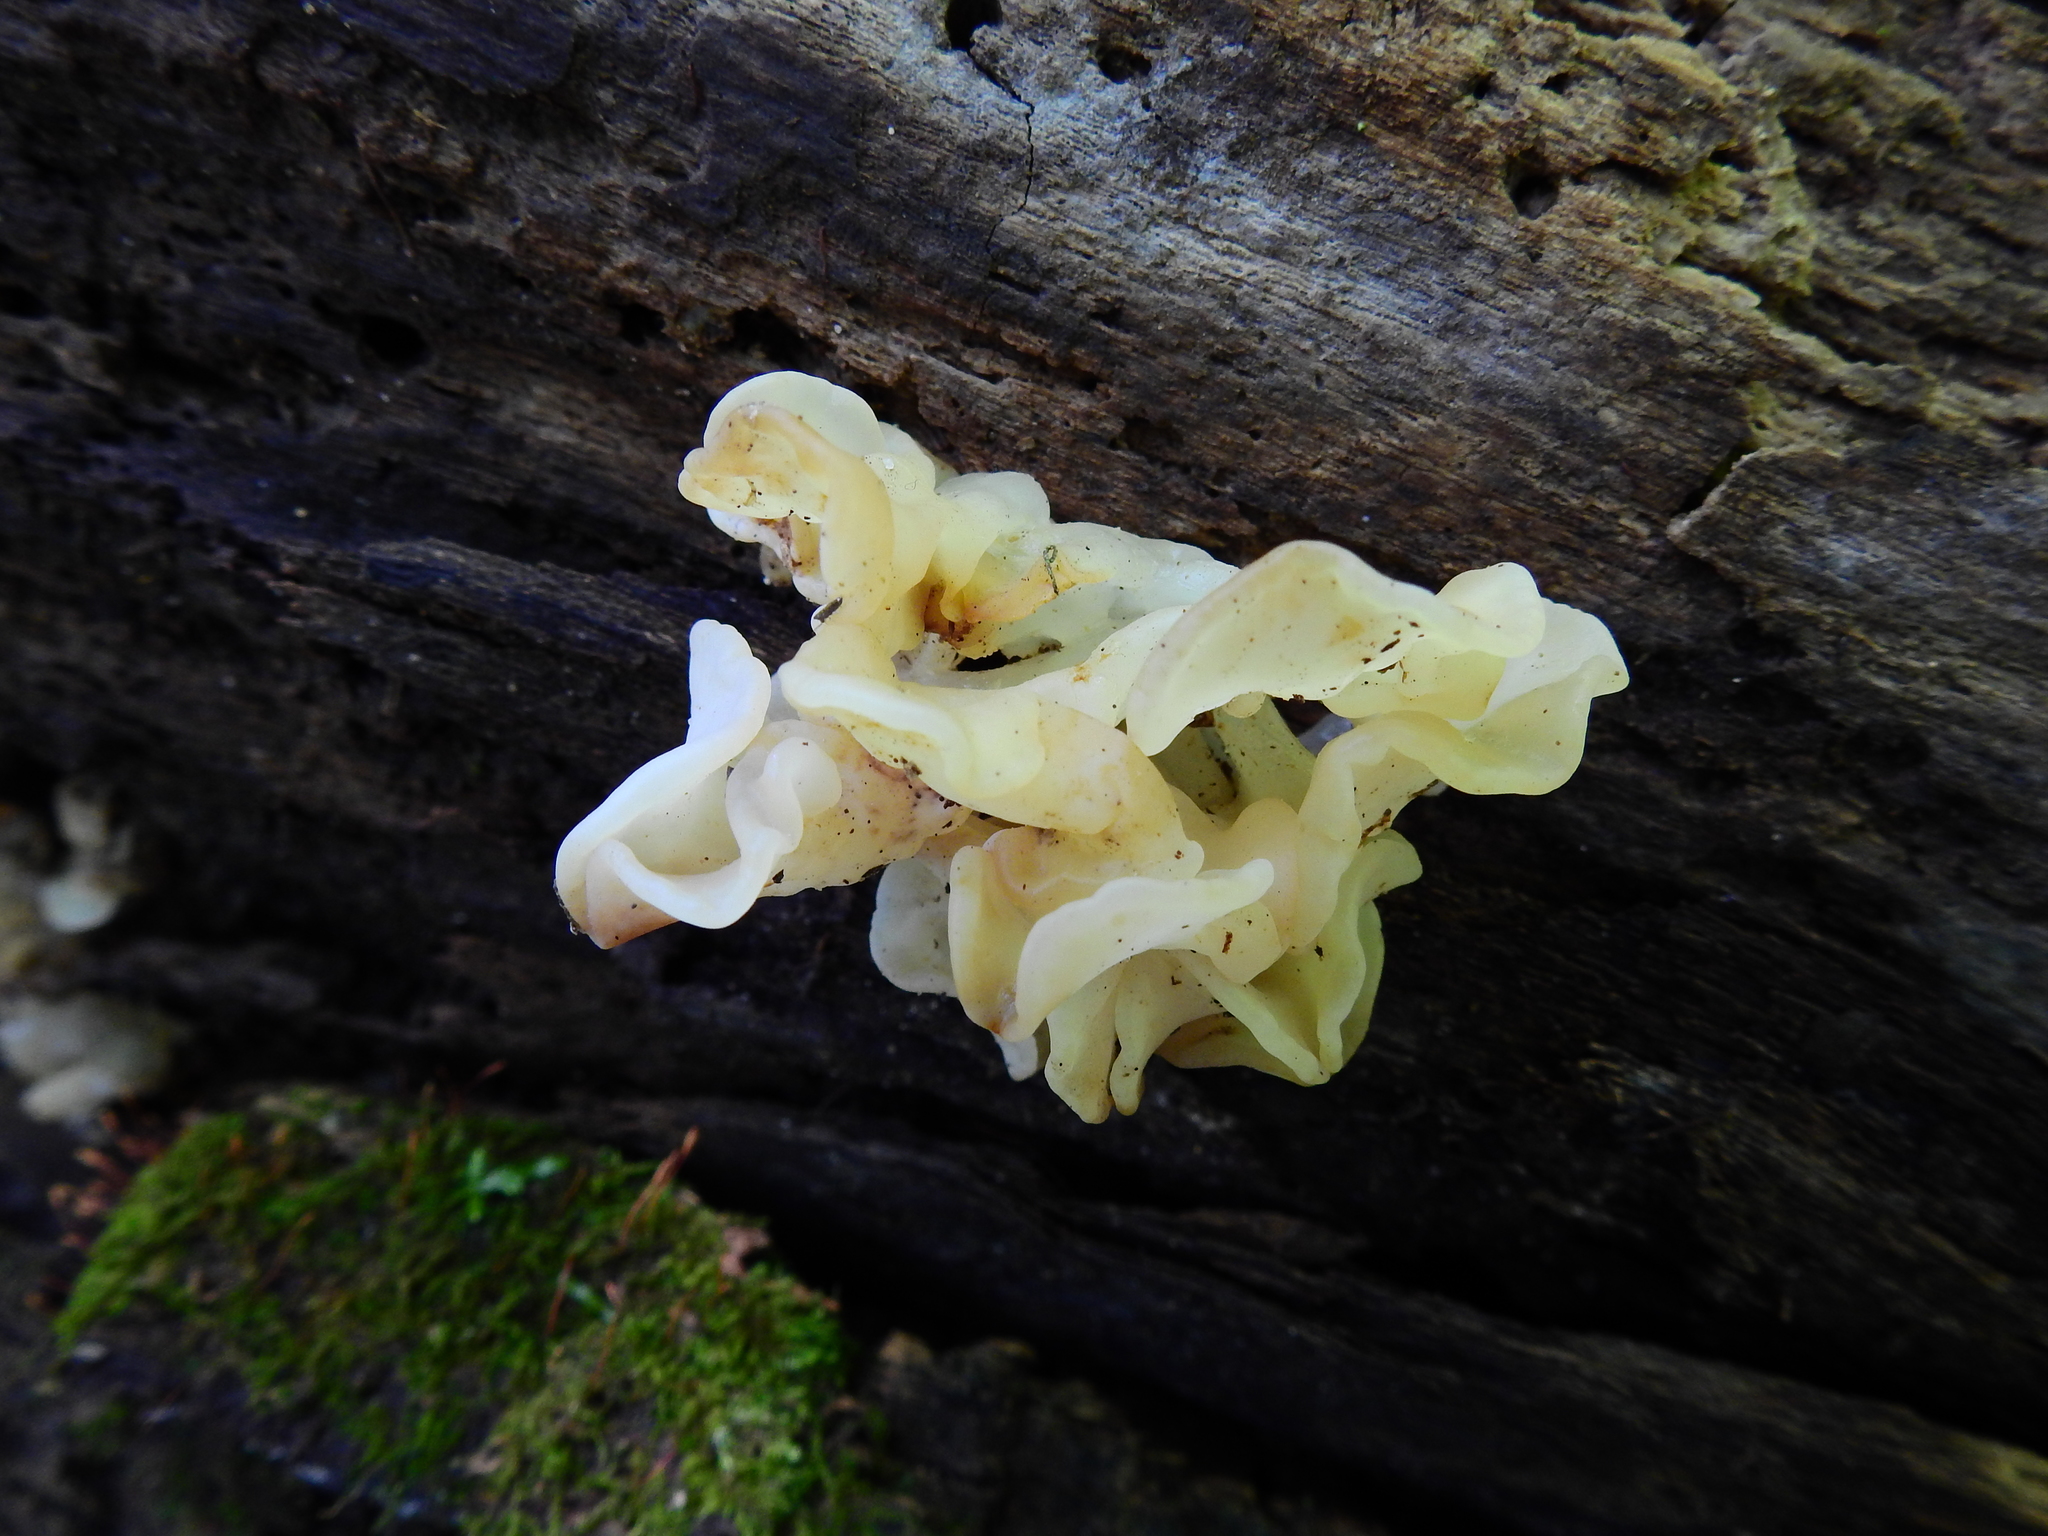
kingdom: Fungi
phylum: Basidiomycota
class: Agaricomycetes
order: Auriculariales
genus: Ductifera
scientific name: Ductifera pululahuana
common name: White jelly fungus
